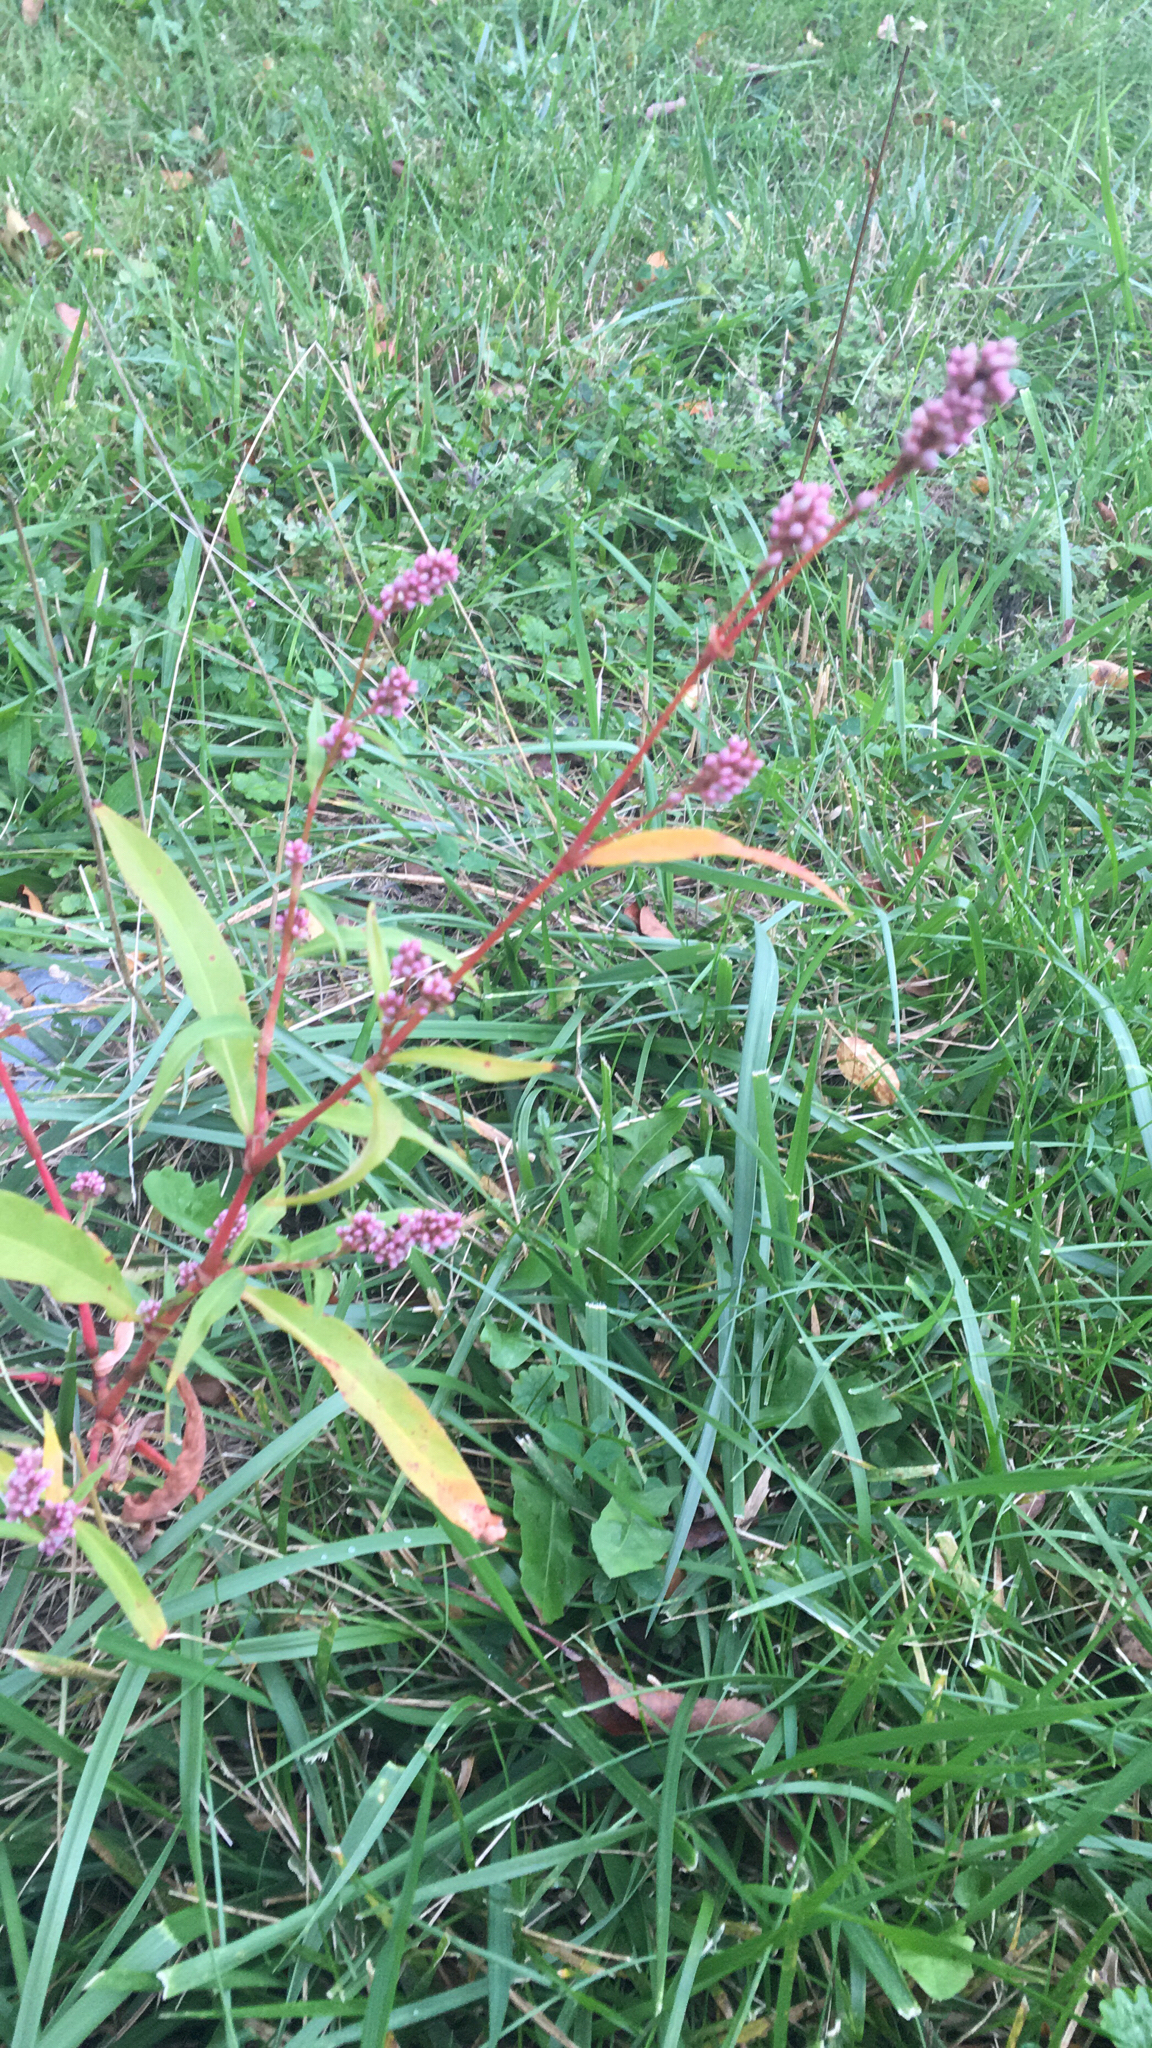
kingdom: Plantae
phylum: Tracheophyta
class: Magnoliopsida
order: Caryophyllales
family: Polygonaceae
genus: Persicaria
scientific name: Persicaria maculosa
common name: Redshank
